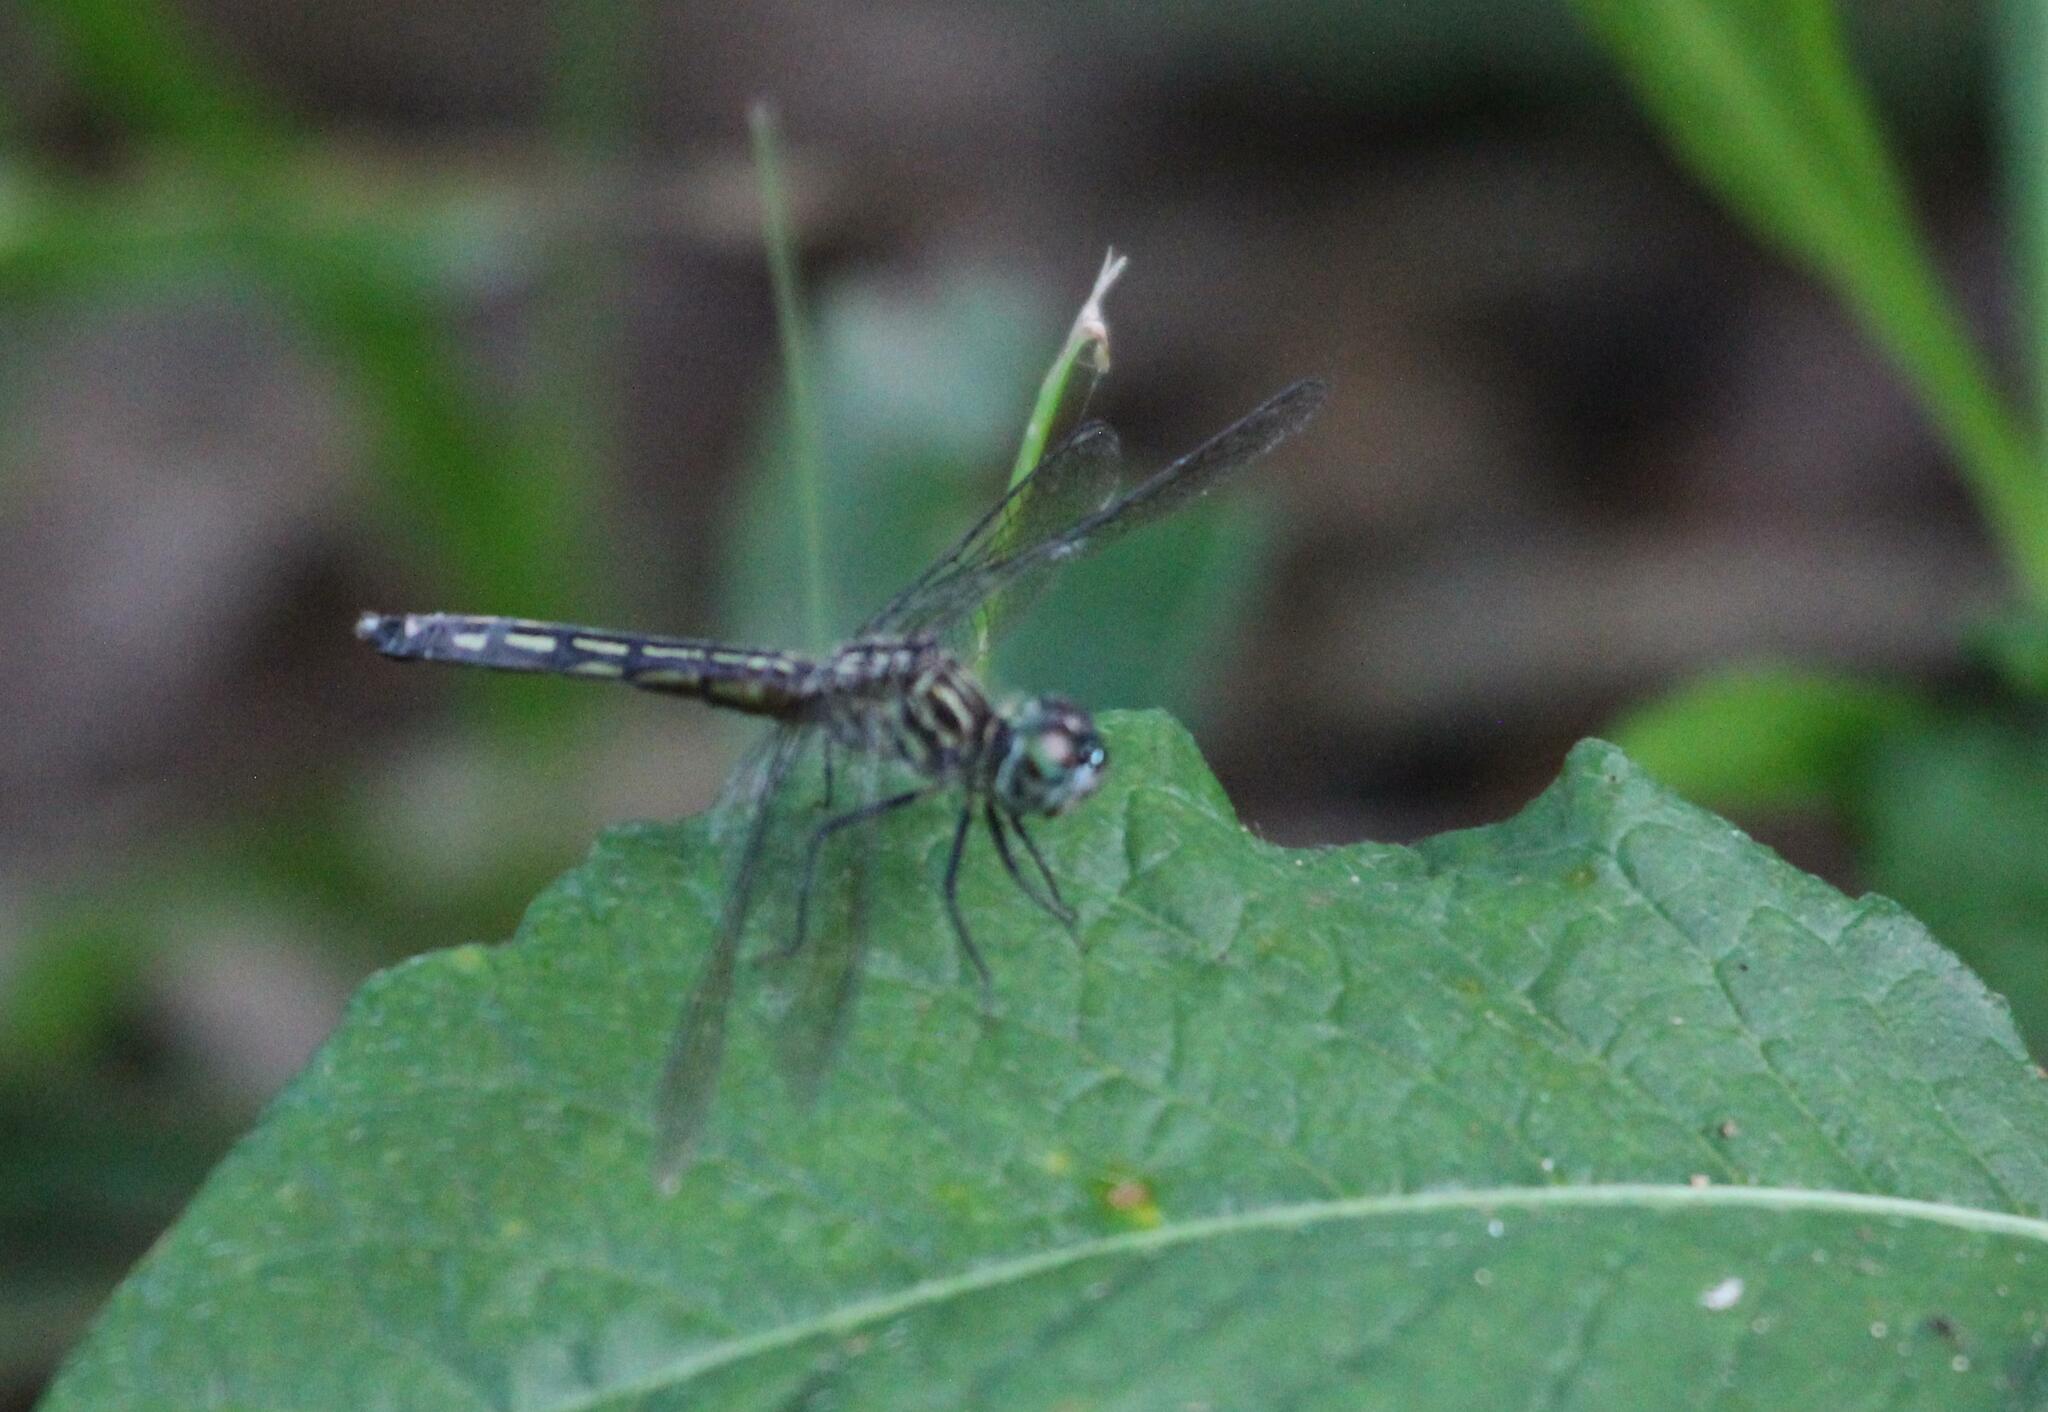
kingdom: Animalia
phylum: Arthropoda
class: Insecta
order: Odonata
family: Libellulidae
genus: Pachydiplax
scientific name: Pachydiplax longipennis
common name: Blue dasher
